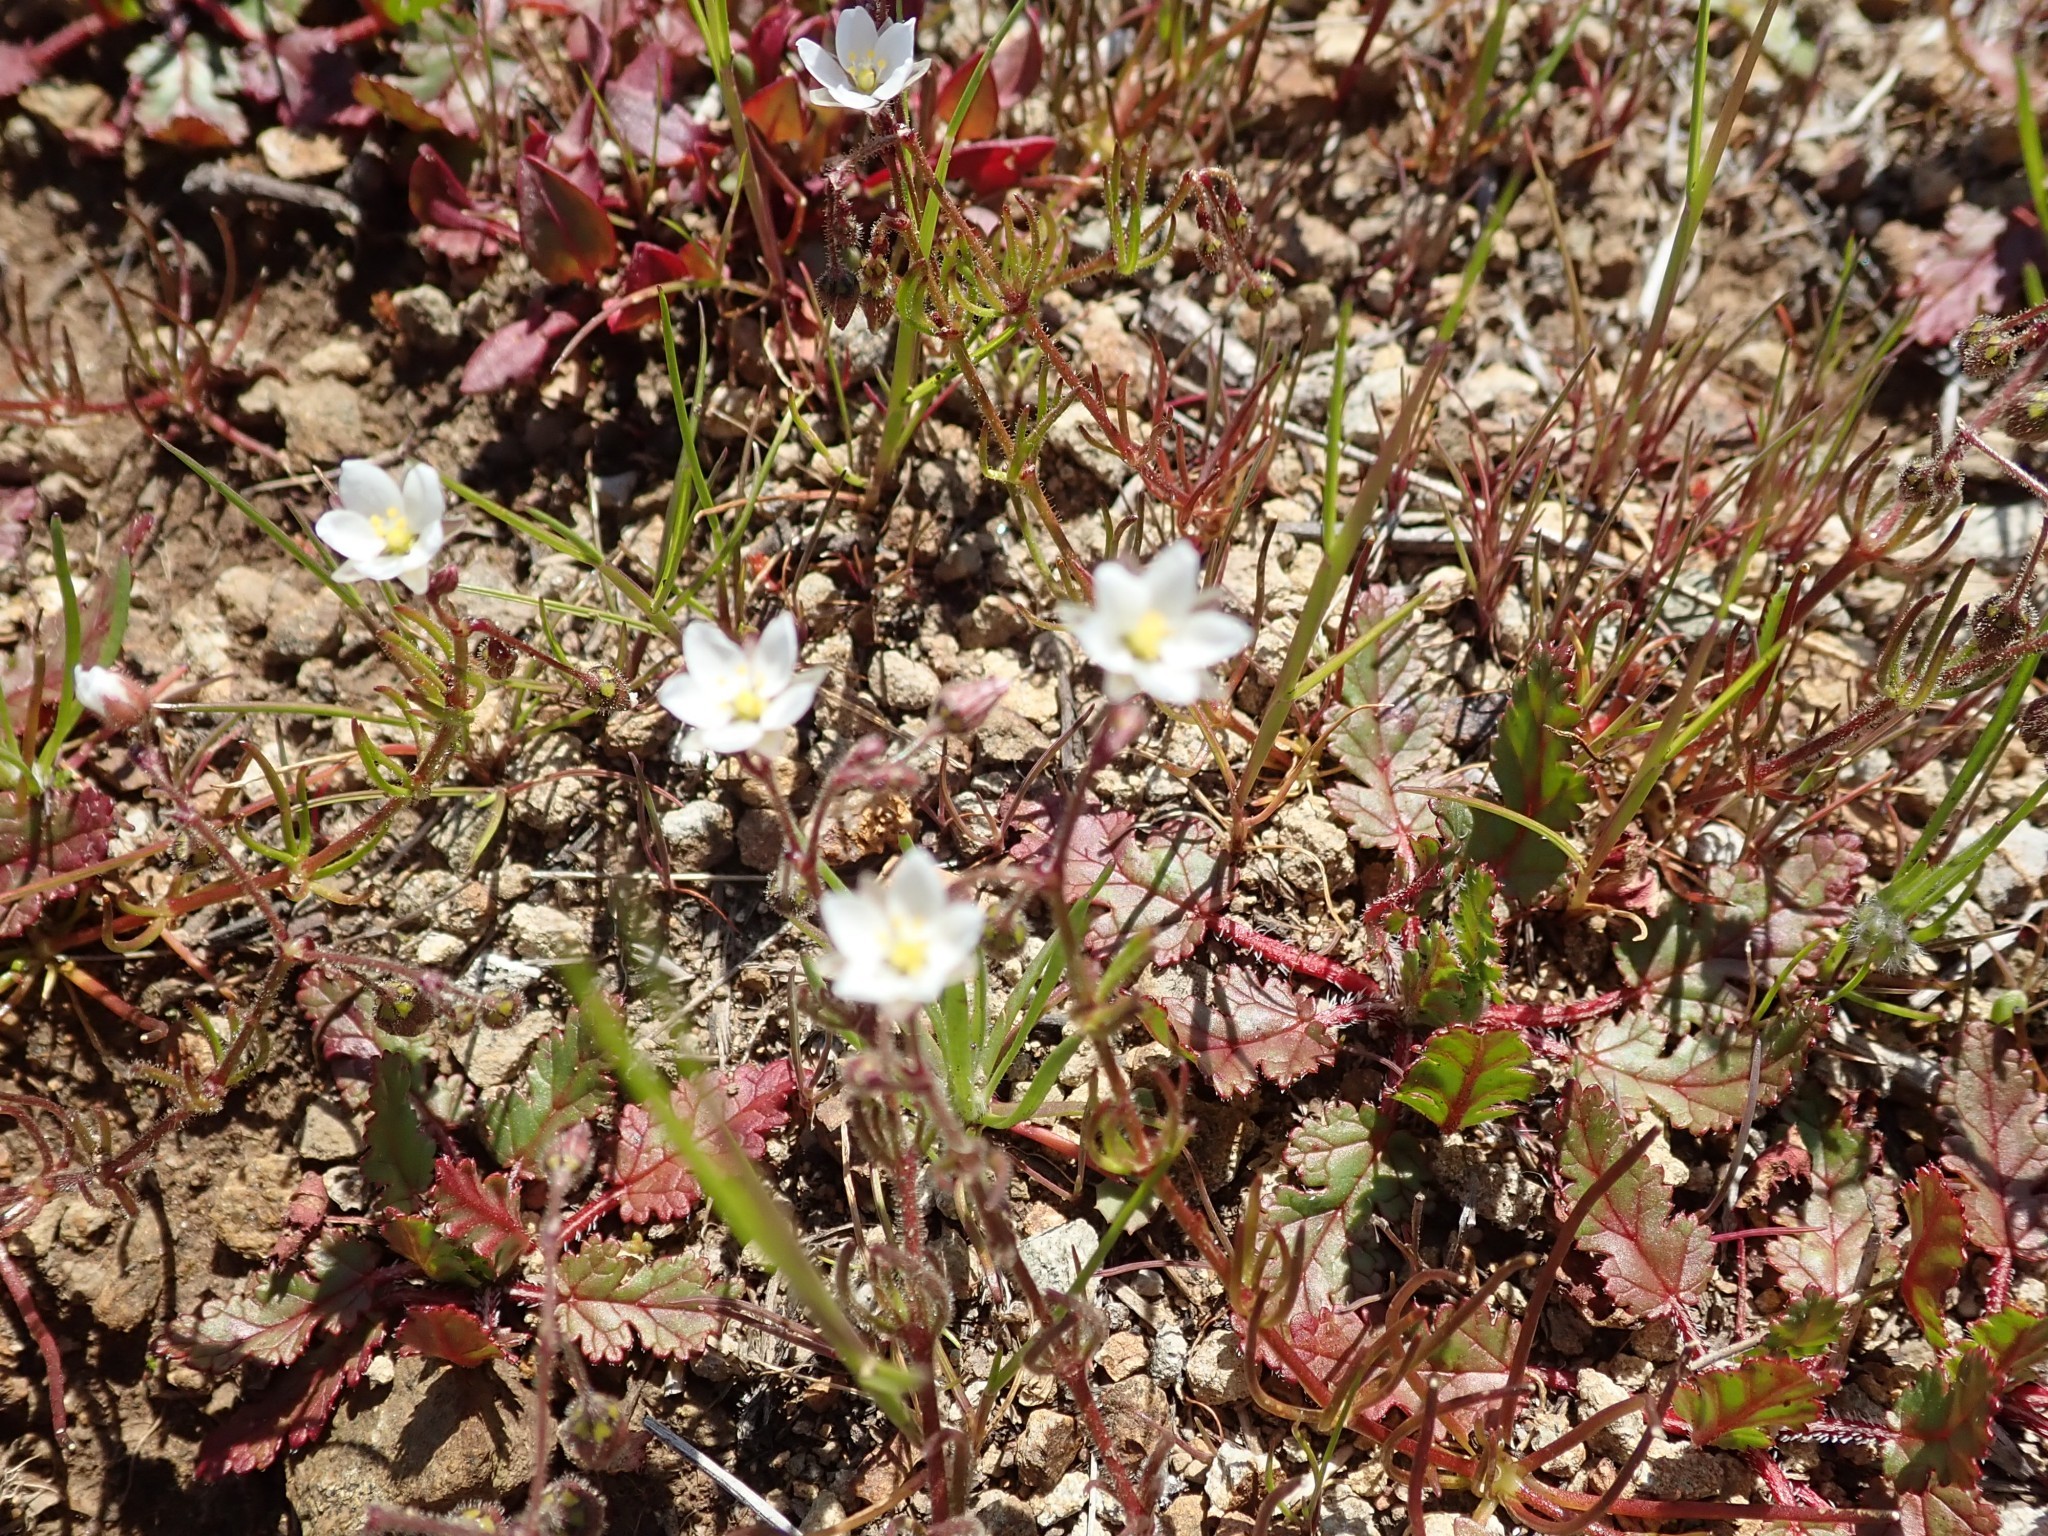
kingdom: Plantae
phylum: Tracheophyta
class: Magnoliopsida
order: Caryophyllales
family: Caryophyllaceae
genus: Spergula
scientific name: Spergula arvensis
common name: Corn spurrey
